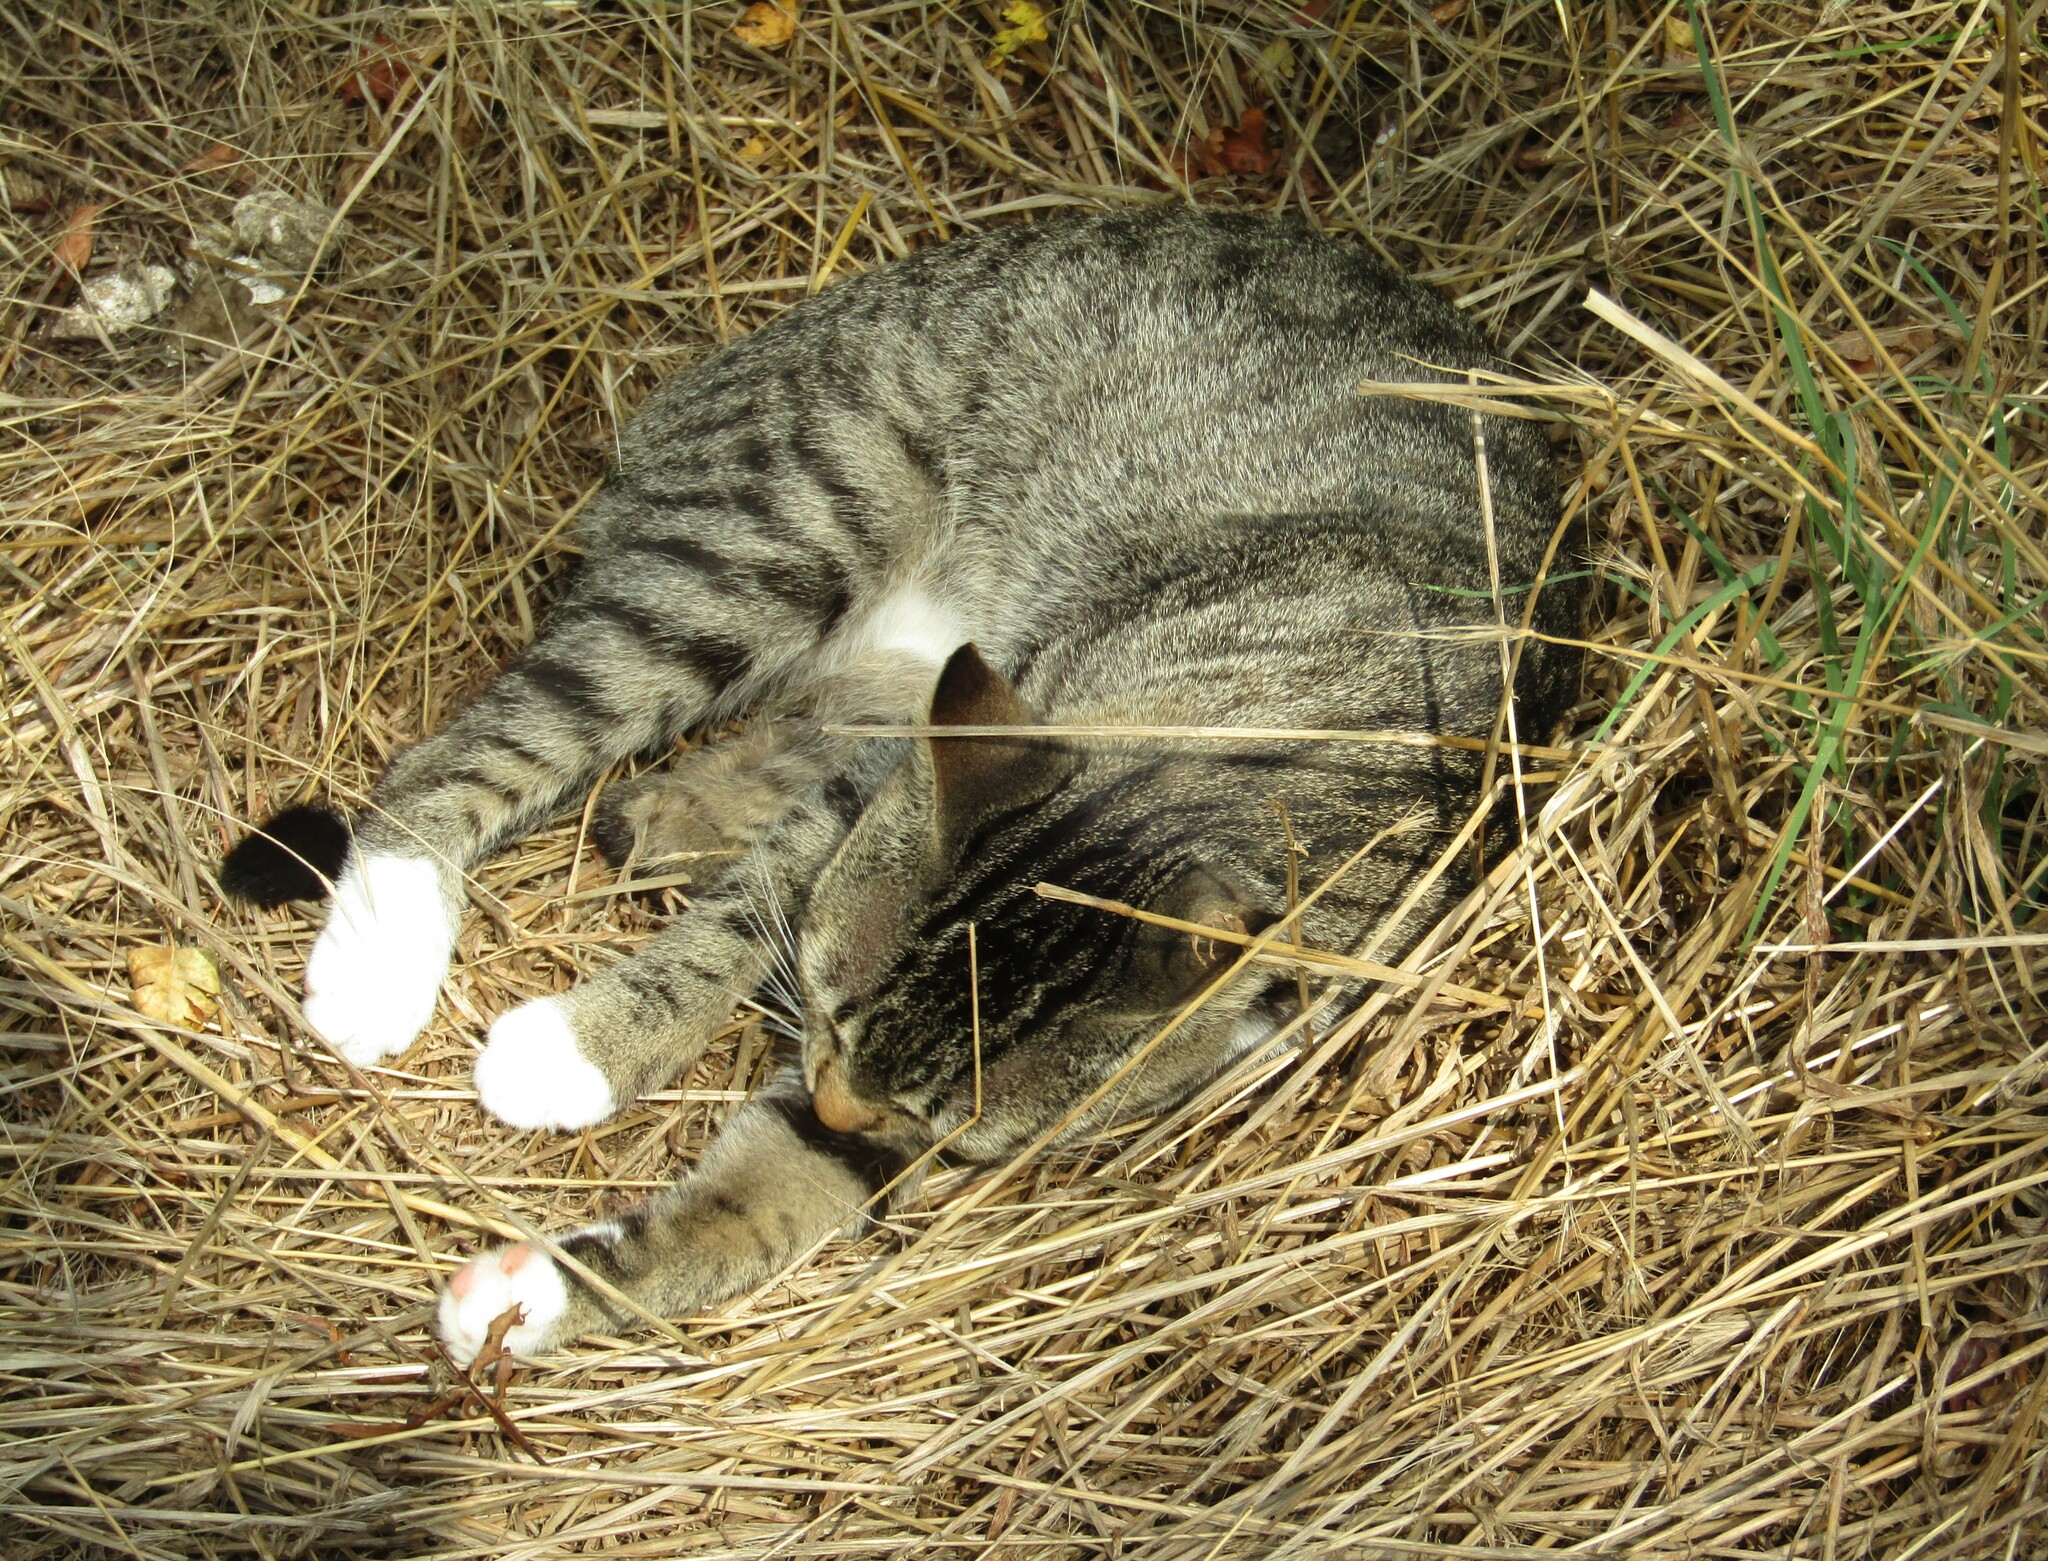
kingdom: Animalia
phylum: Chordata
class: Mammalia
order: Carnivora
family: Felidae
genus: Felis
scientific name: Felis catus
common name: Domestic cat
